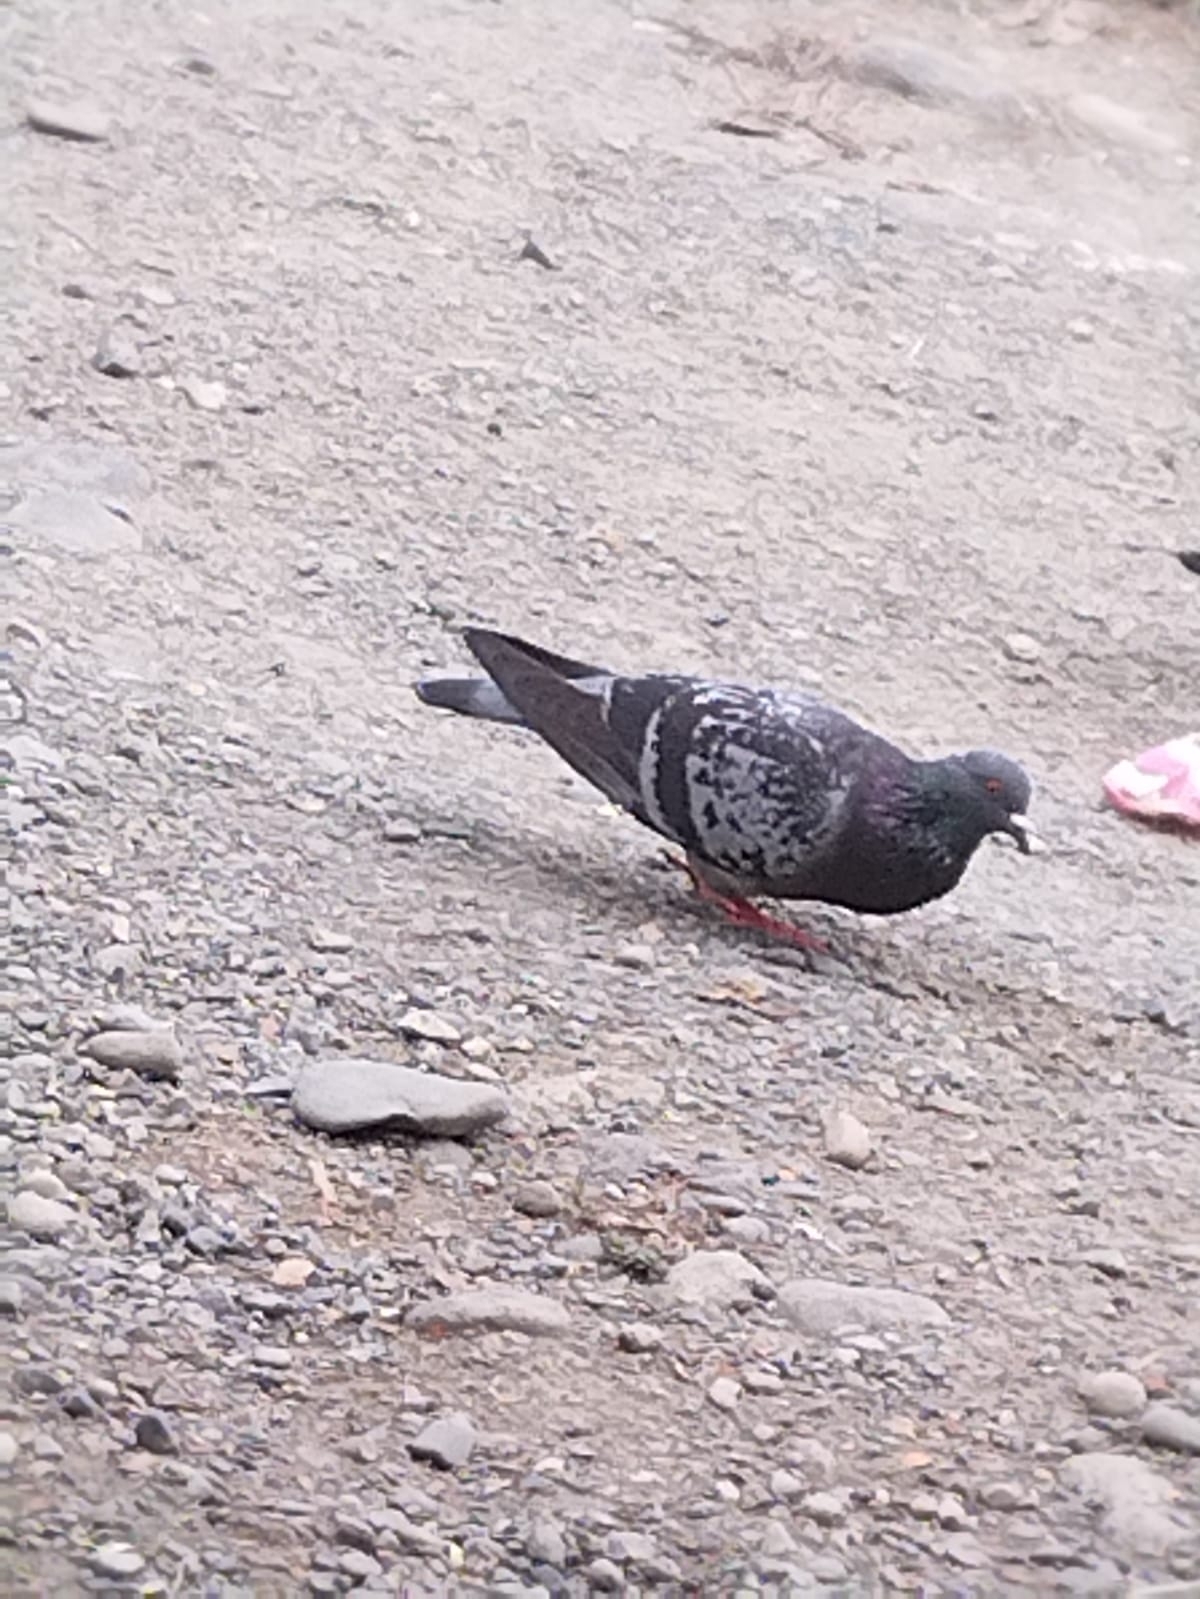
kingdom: Animalia
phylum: Chordata
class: Aves
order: Columbiformes
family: Columbidae
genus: Columba
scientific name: Columba livia
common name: Rock pigeon
